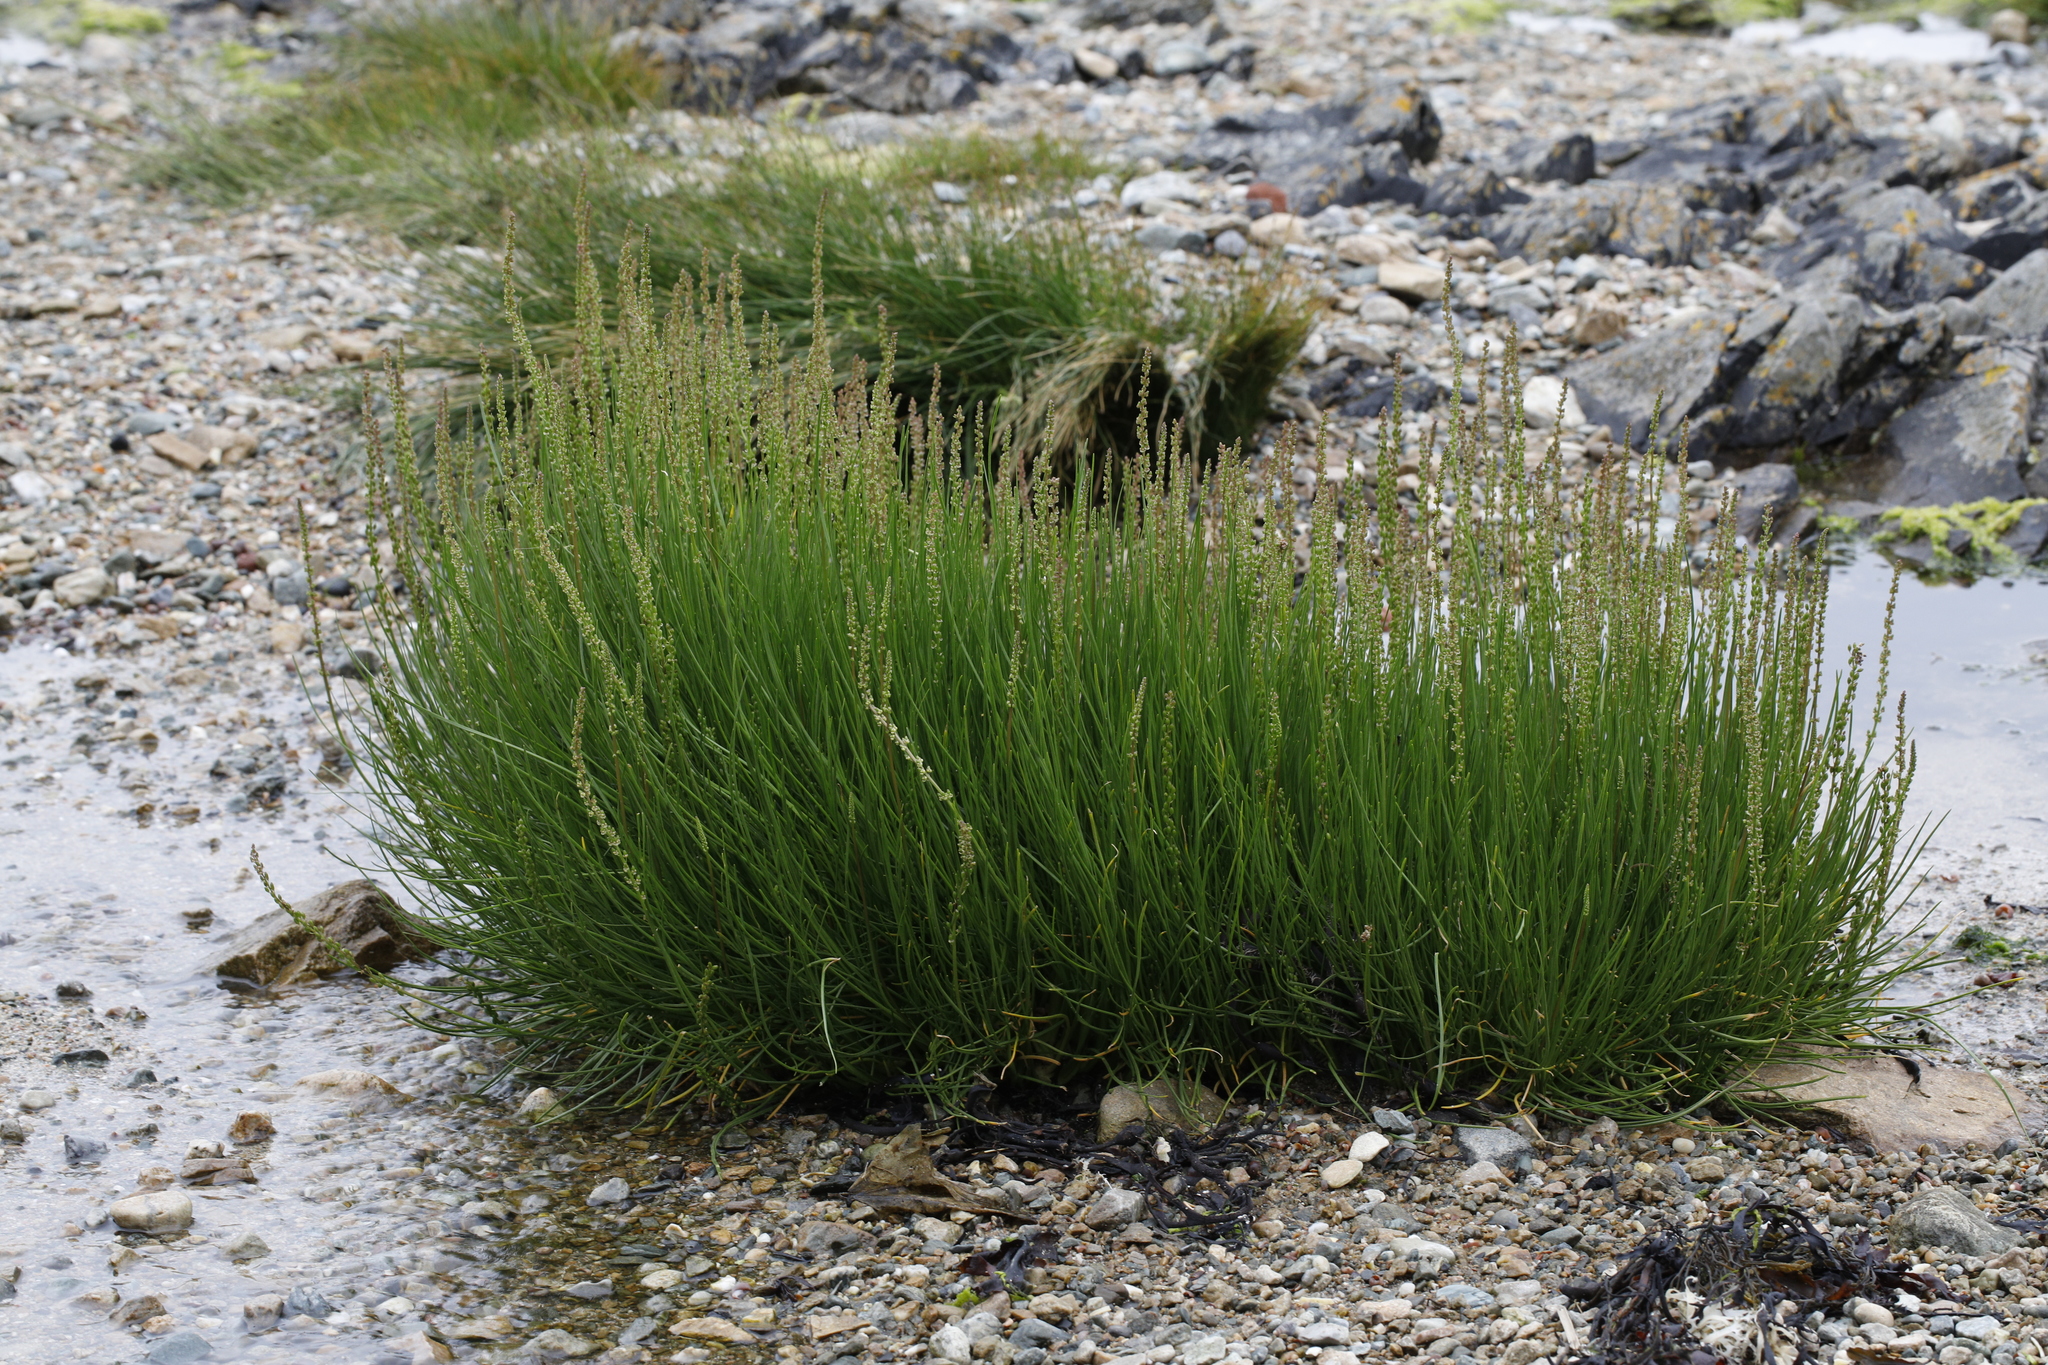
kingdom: Plantae
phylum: Tracheophyta
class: Liliopsida
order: Alismatales
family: Juncaginaceae
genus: Triglochin
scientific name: Triglochin maritima
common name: Sea arrowgrass
